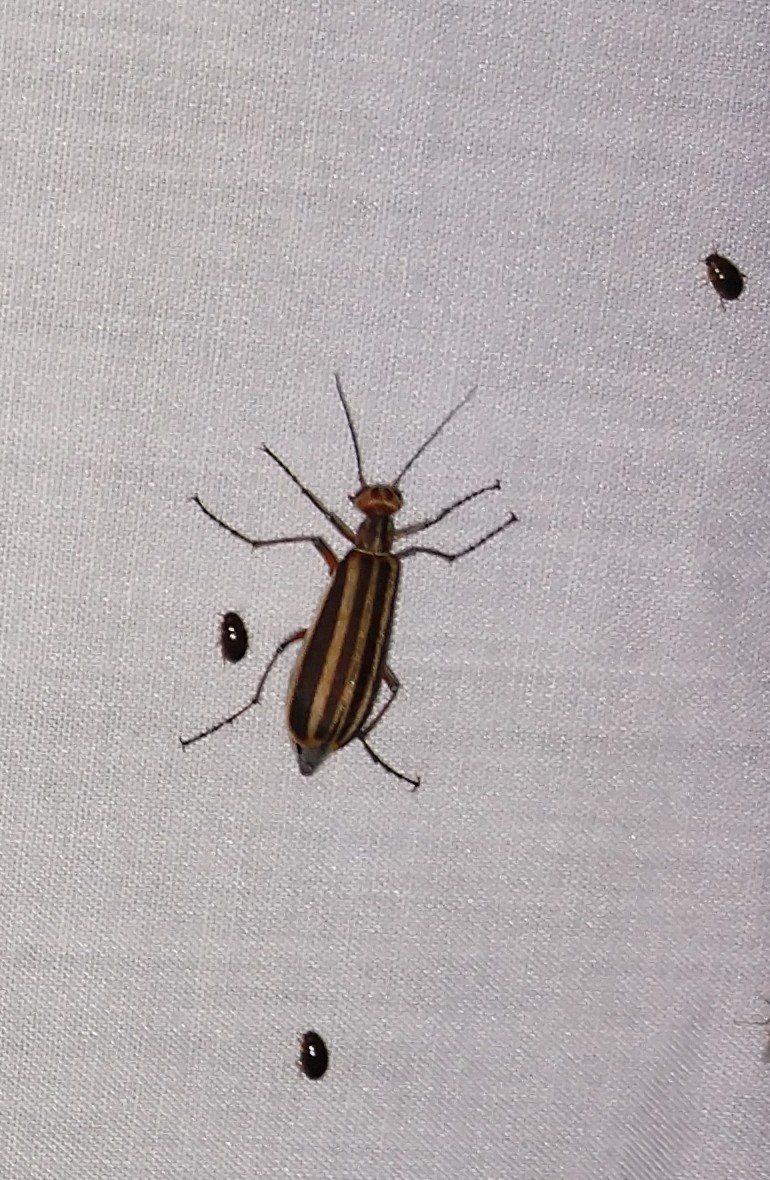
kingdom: Animalia
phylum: Arthropoda
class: Insecta
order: Coleoptera
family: Meloidae
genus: Epicauta
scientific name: Epicauta vittata
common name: Old-fashioned potato beetle
